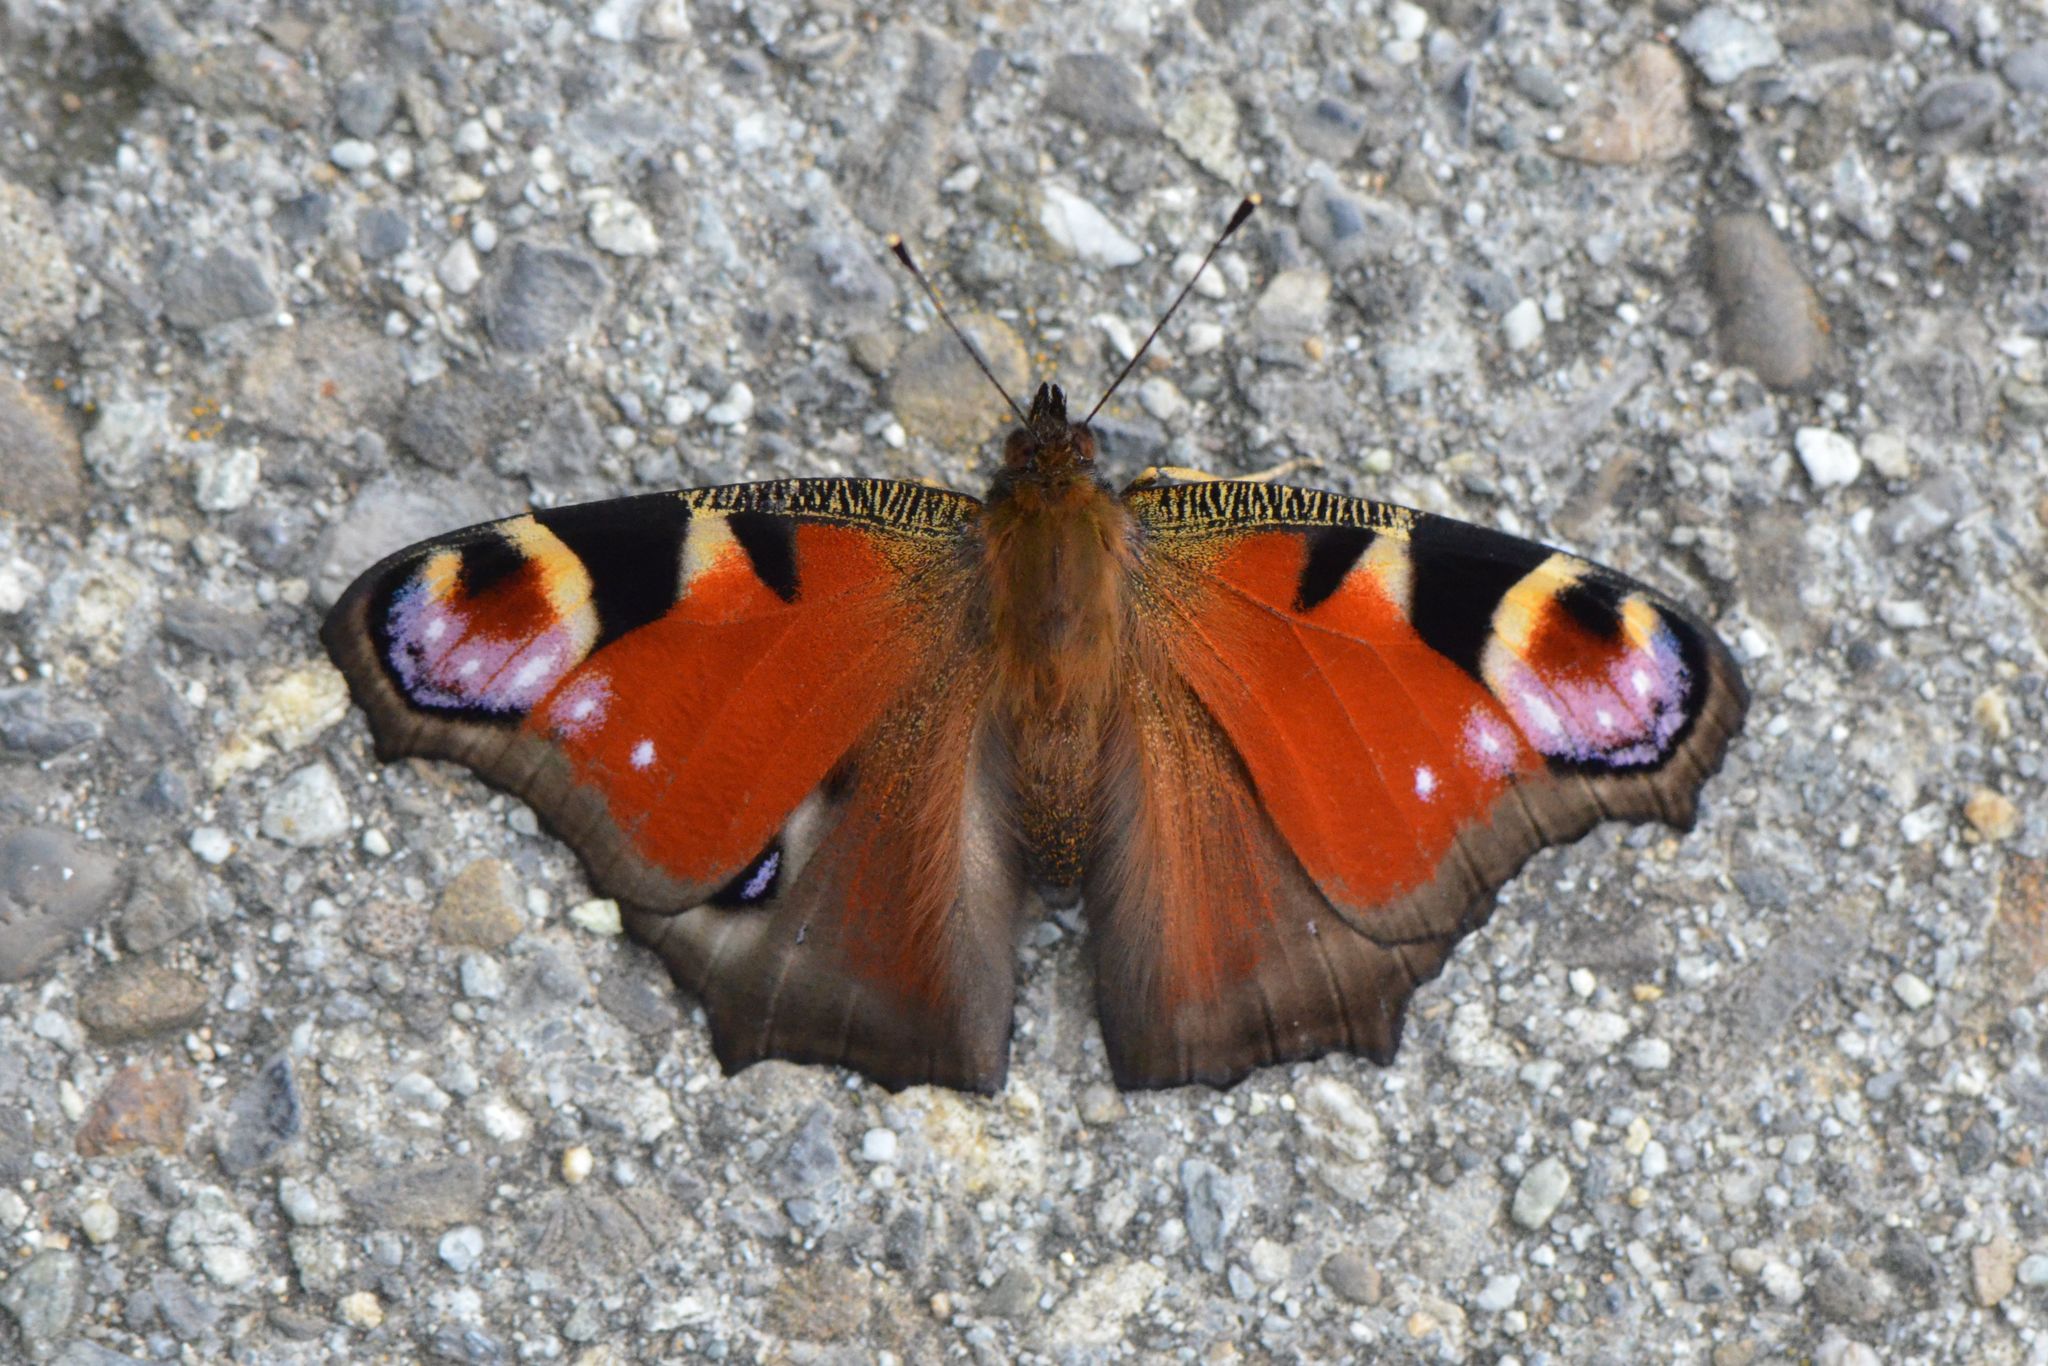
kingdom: Animalia
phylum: Arthropoda
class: Insecta
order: Lepidoptera
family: Nymphalidae
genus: Aglais
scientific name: Aglais io
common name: Peacock
